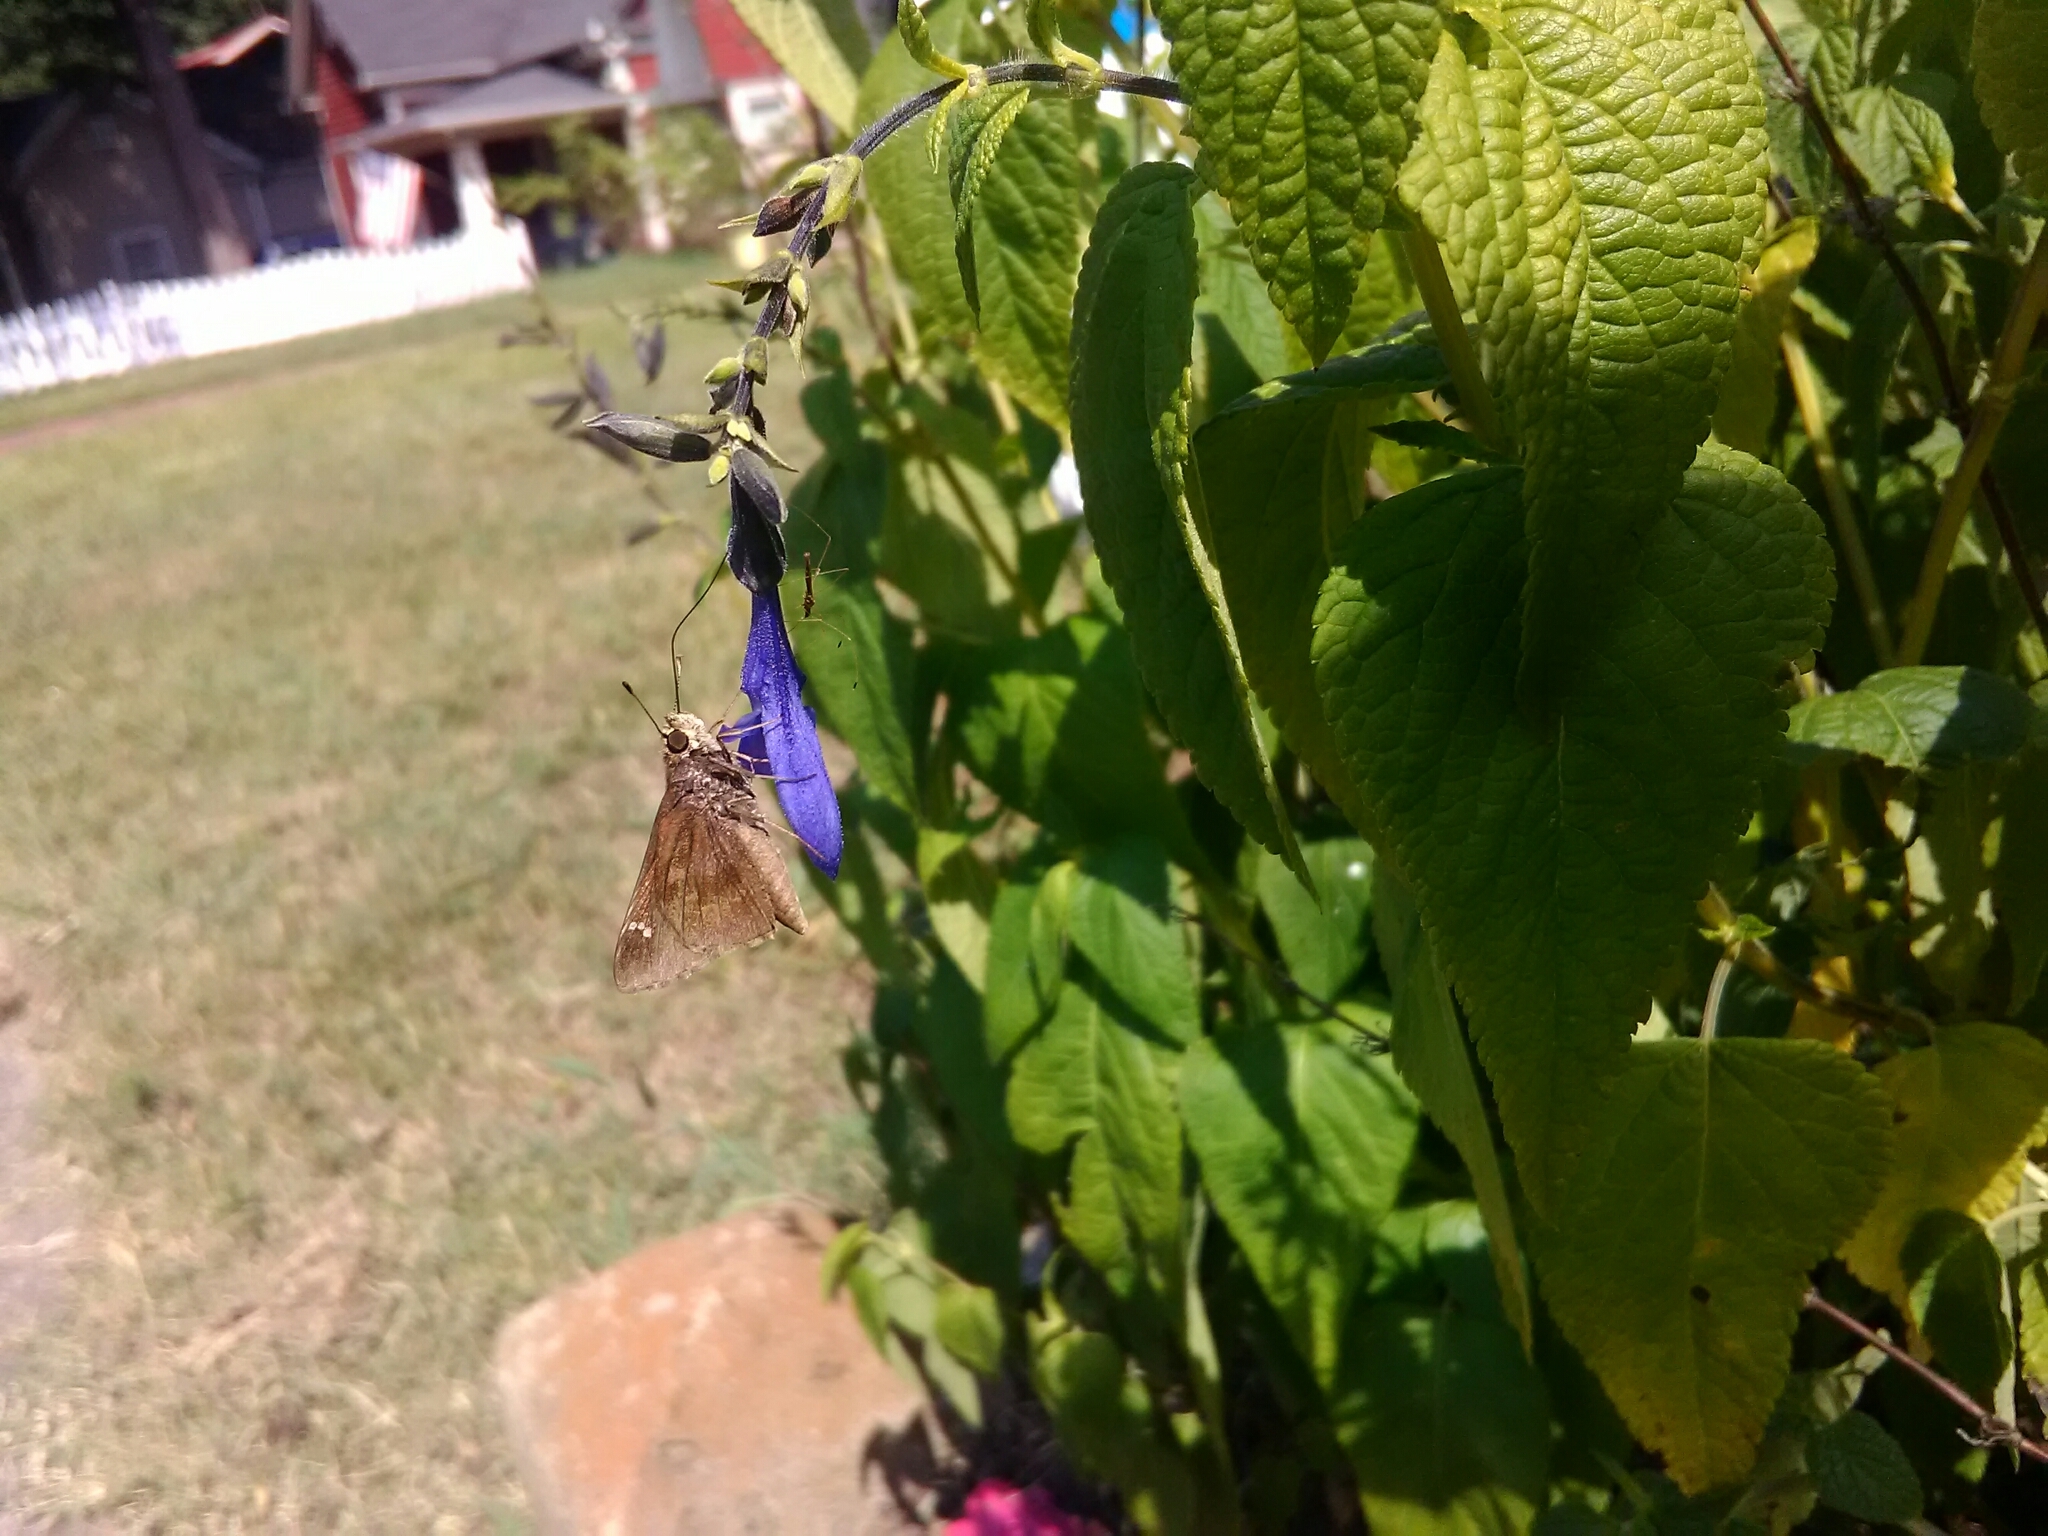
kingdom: Animalia
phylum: Arthropoda
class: Insecta
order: Lepidoptera
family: Hesperiidae
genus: Lerema
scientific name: Lerema accius
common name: Clouded skipper
